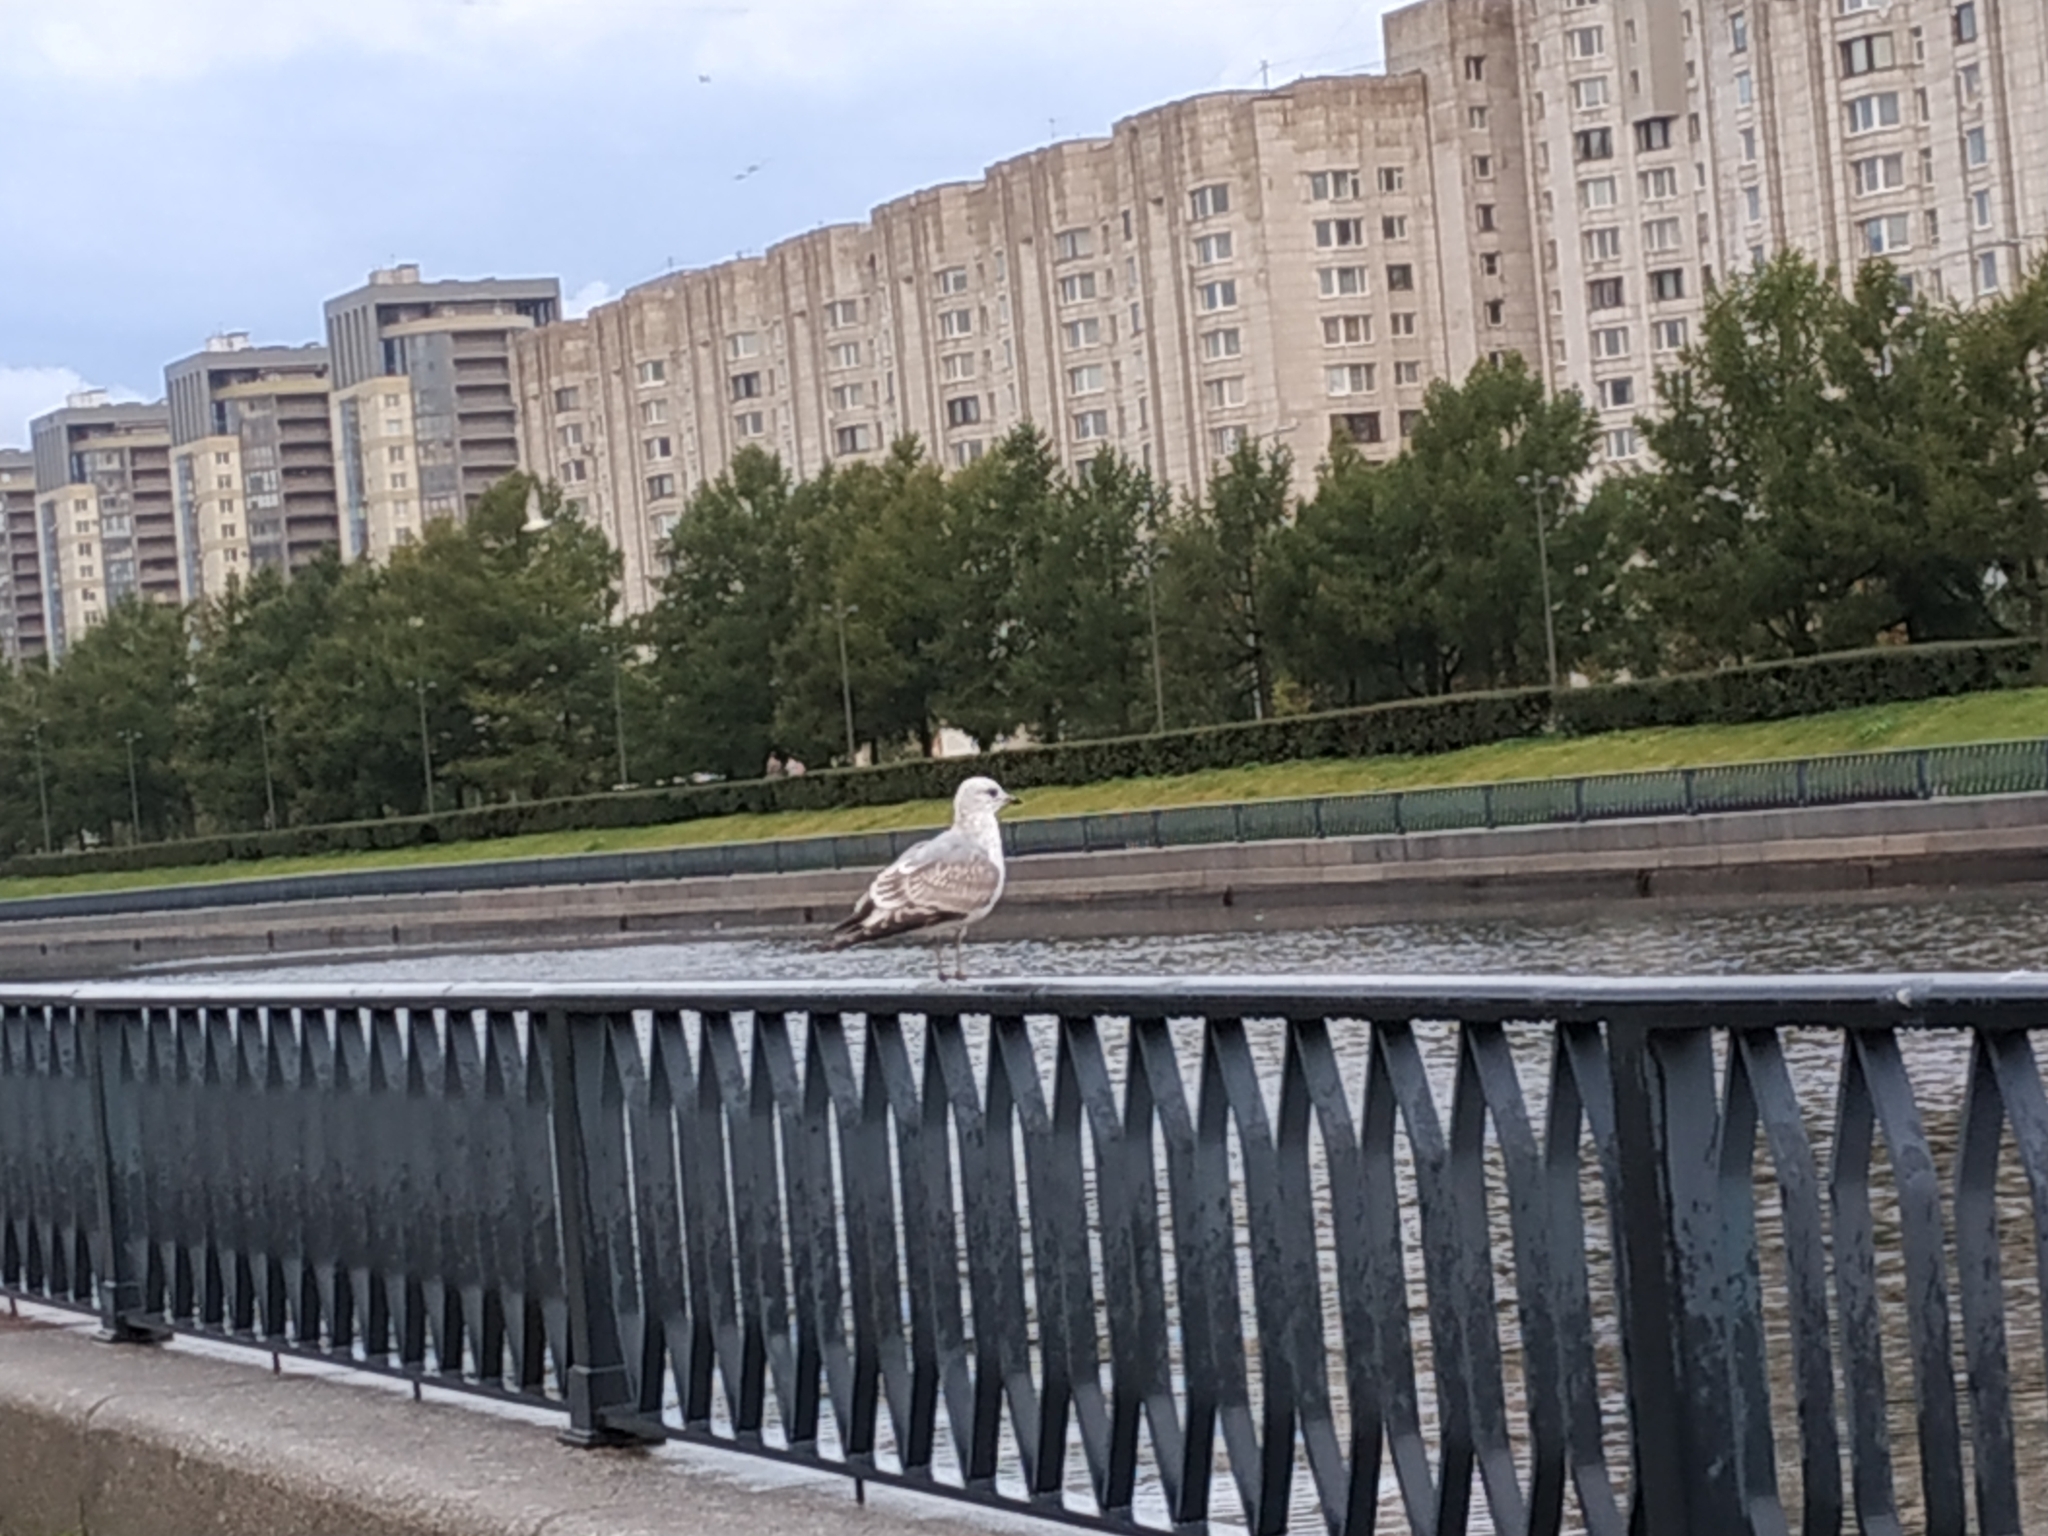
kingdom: Animalia
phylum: Chordata
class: Aves
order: Charadriiformes
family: Laridae
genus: Larus
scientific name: Larus canus
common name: Mew gull
